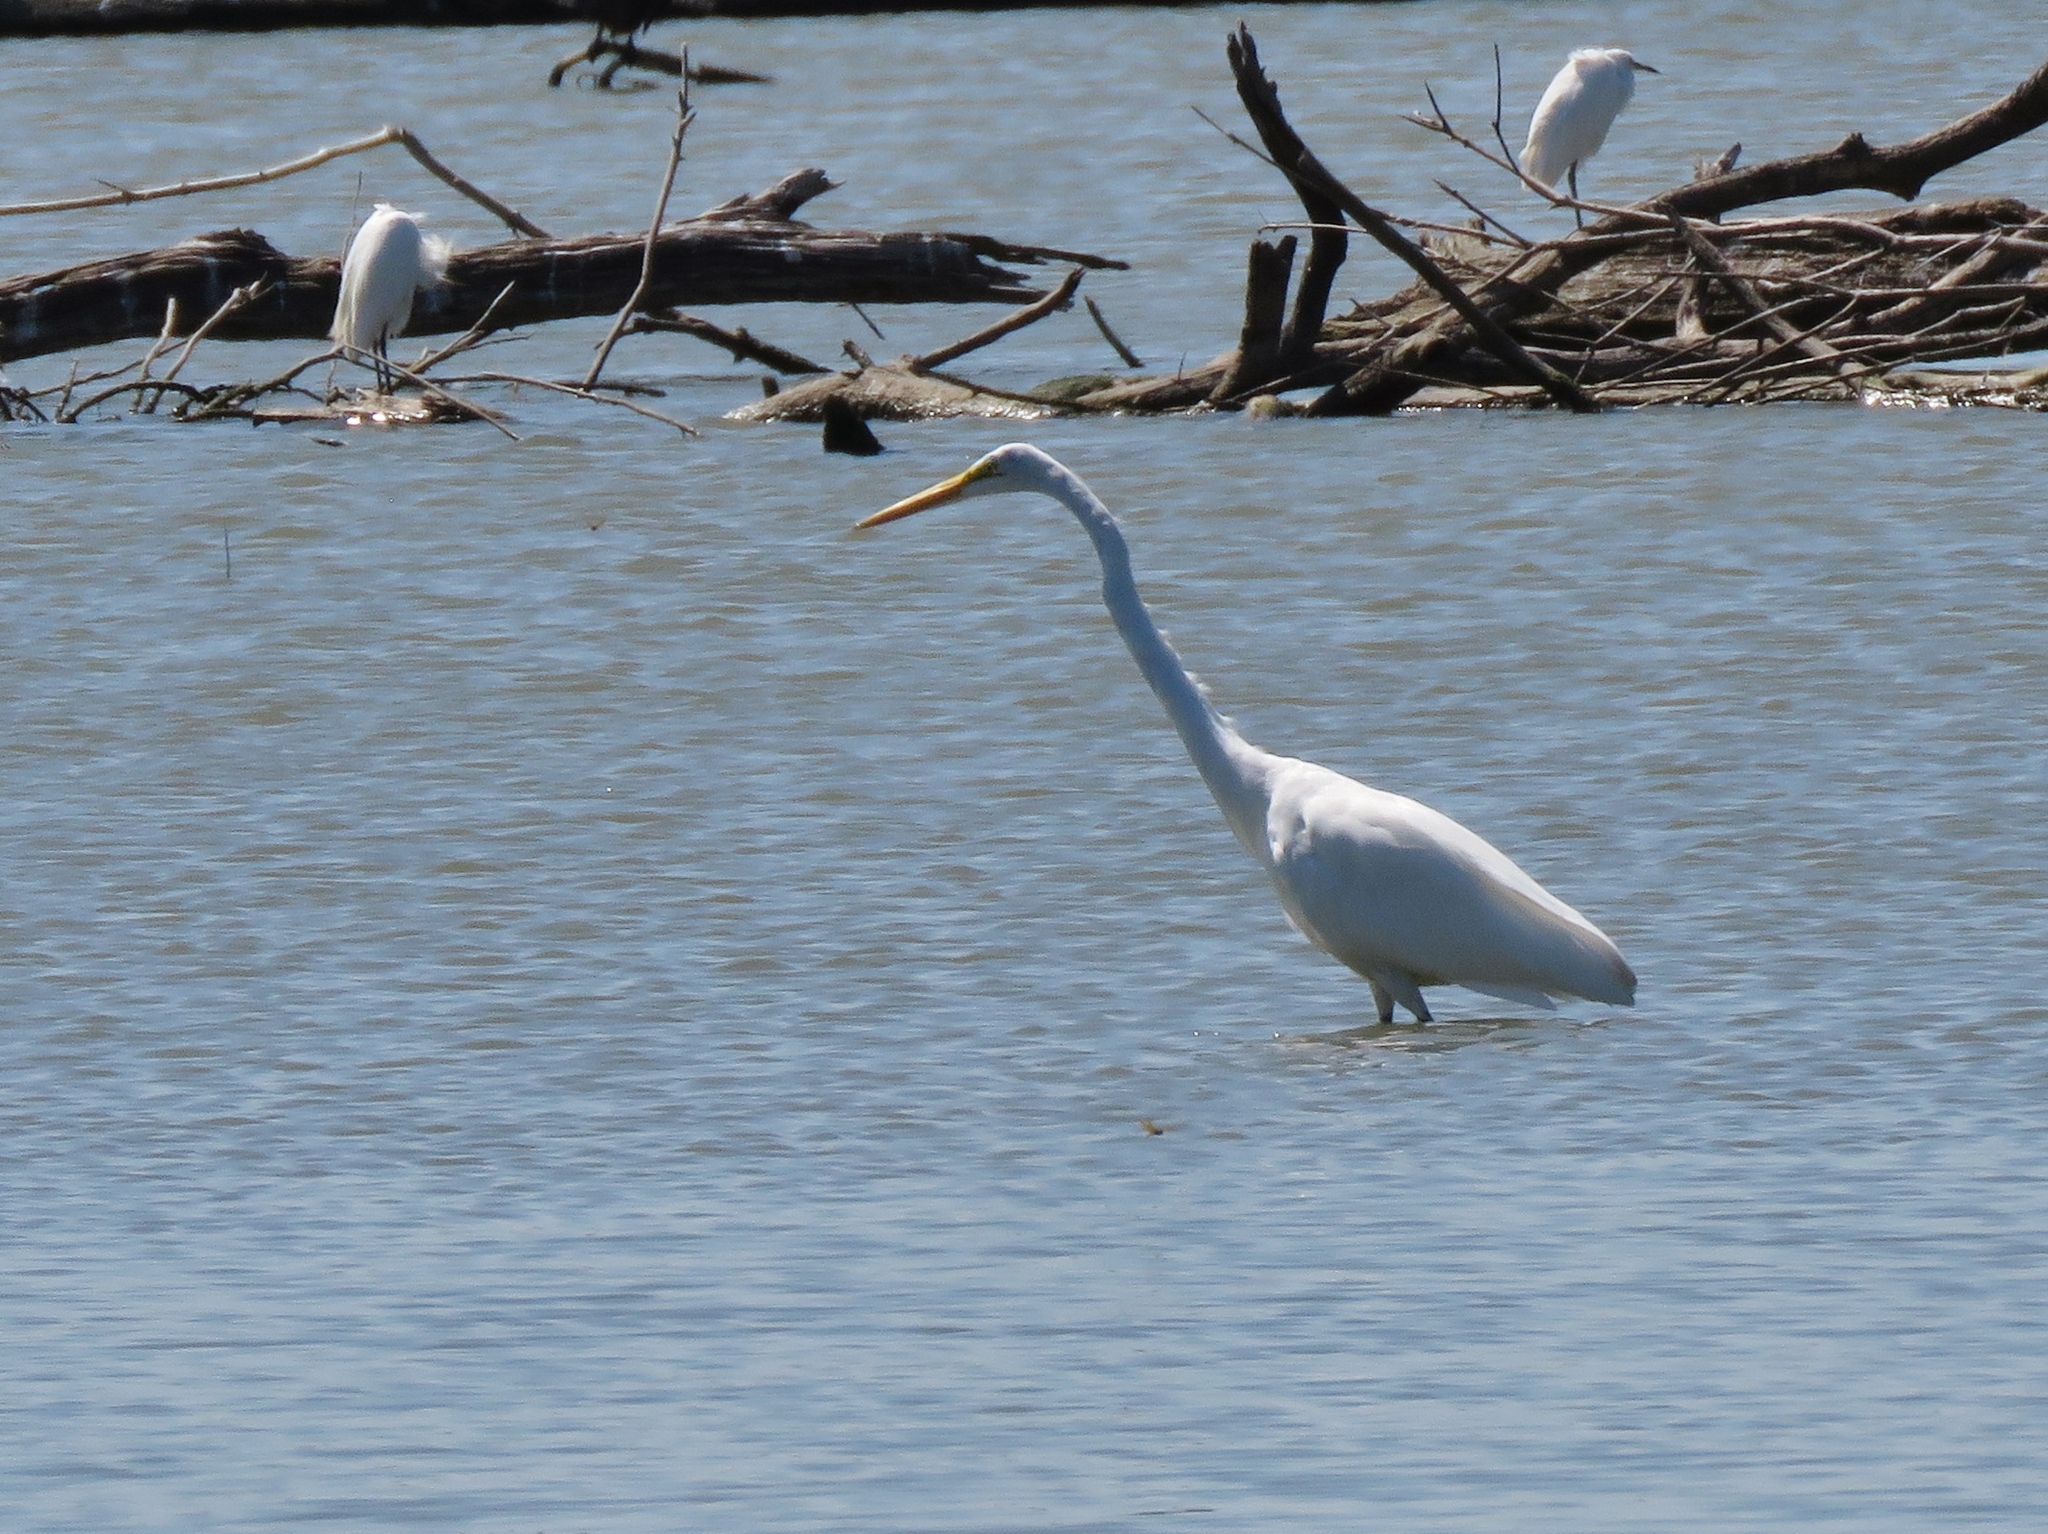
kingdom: Animalia
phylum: Chordata
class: Aves
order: Pelecaniformes
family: Ardeidae
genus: Ardea
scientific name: Ardea alba
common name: Great egret
